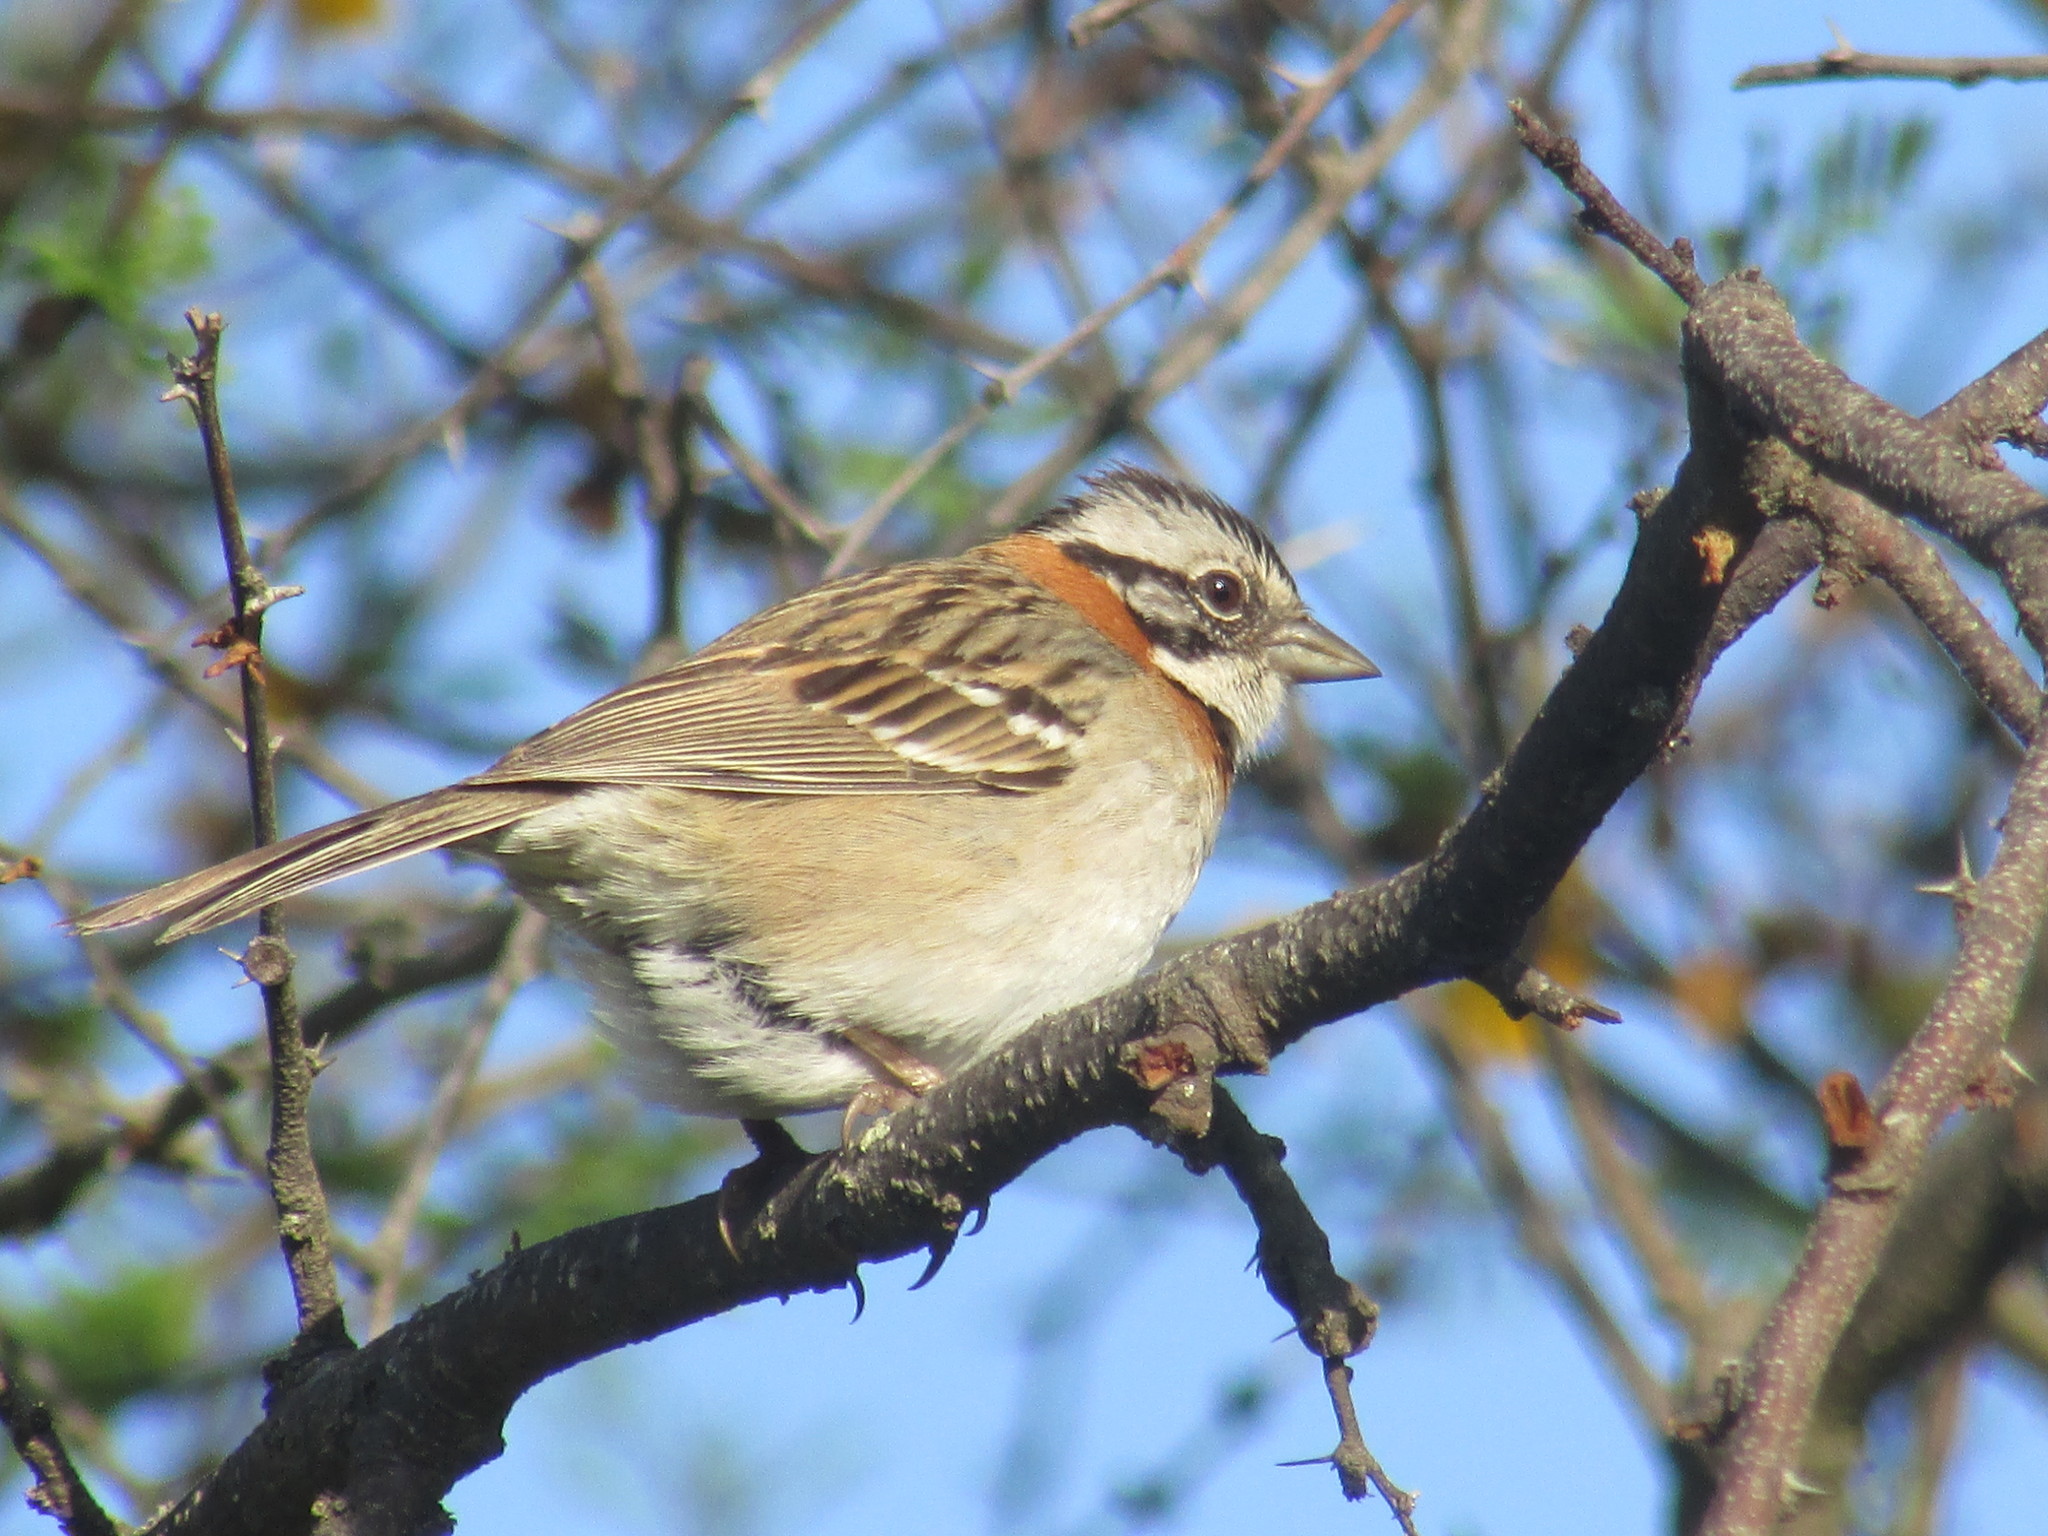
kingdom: Animalia
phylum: Chordata
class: Aves
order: Passeriformes
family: Passerellidae
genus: Zonotrichia
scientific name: Zonotrichia capensis
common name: Rufous-collared sparrow
